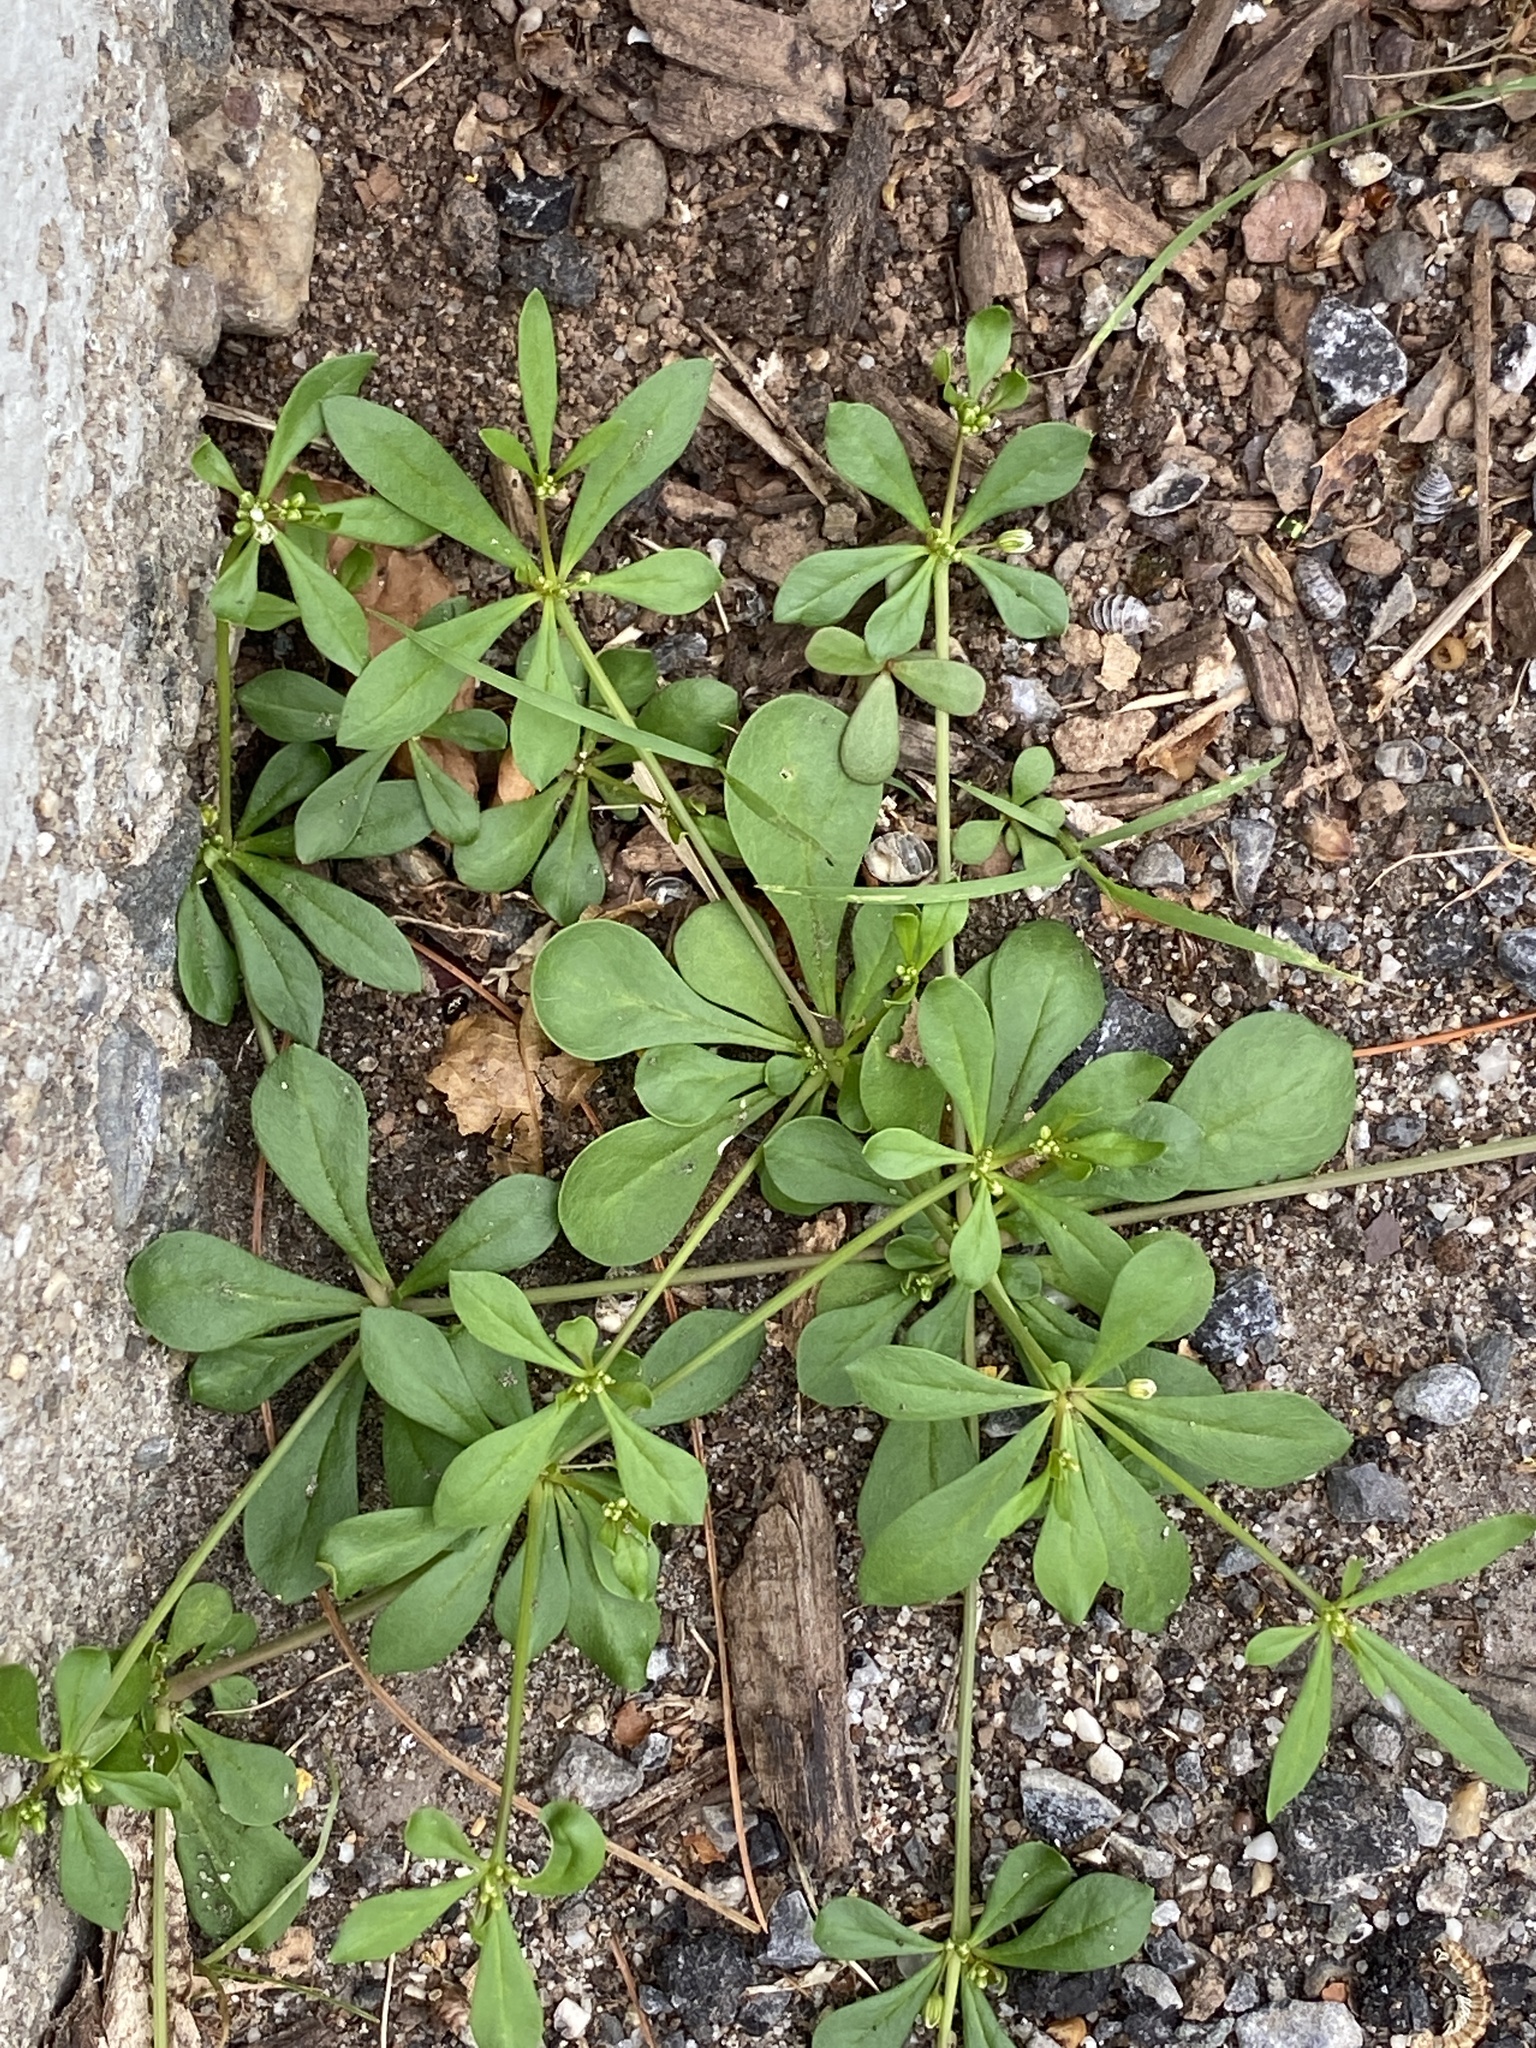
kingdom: Plantae
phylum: Tracheophyta
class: Magnoliopsida
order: Caryophyllales
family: Molluginaceae
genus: Mollugo
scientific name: Mollugo verticillata
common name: Green carpetweed
